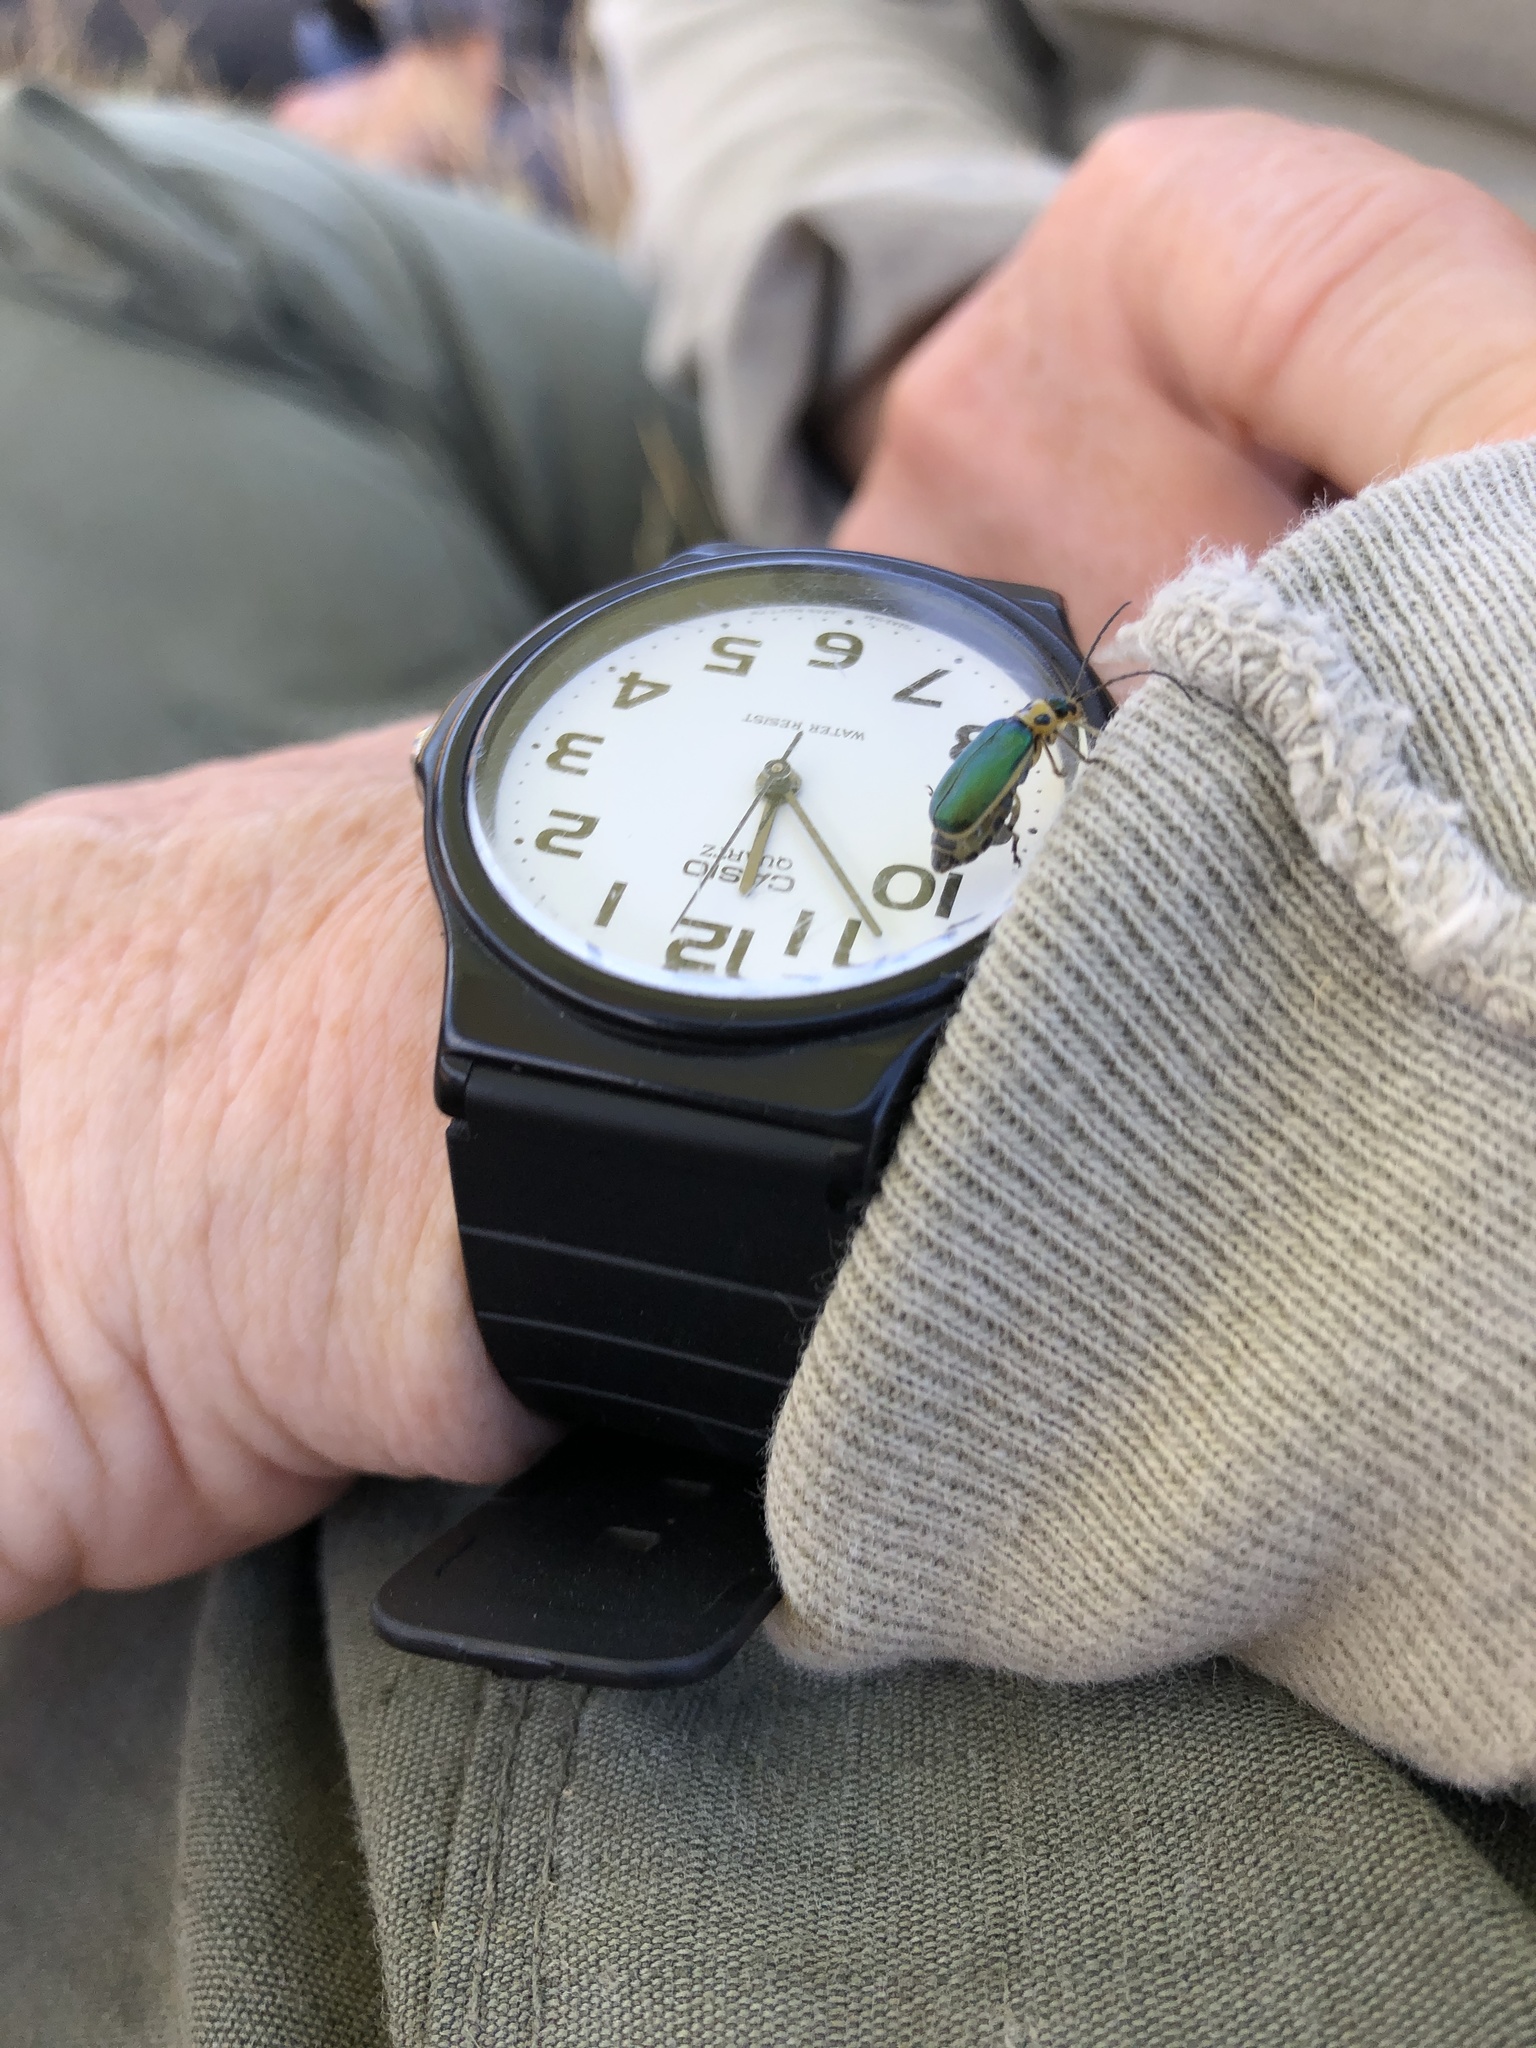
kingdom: Animalia
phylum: Arthropoda
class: Insecta
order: Coleoptera
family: Chrysomelidae
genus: Trirhabda
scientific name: Trirhabda flavolimbata
